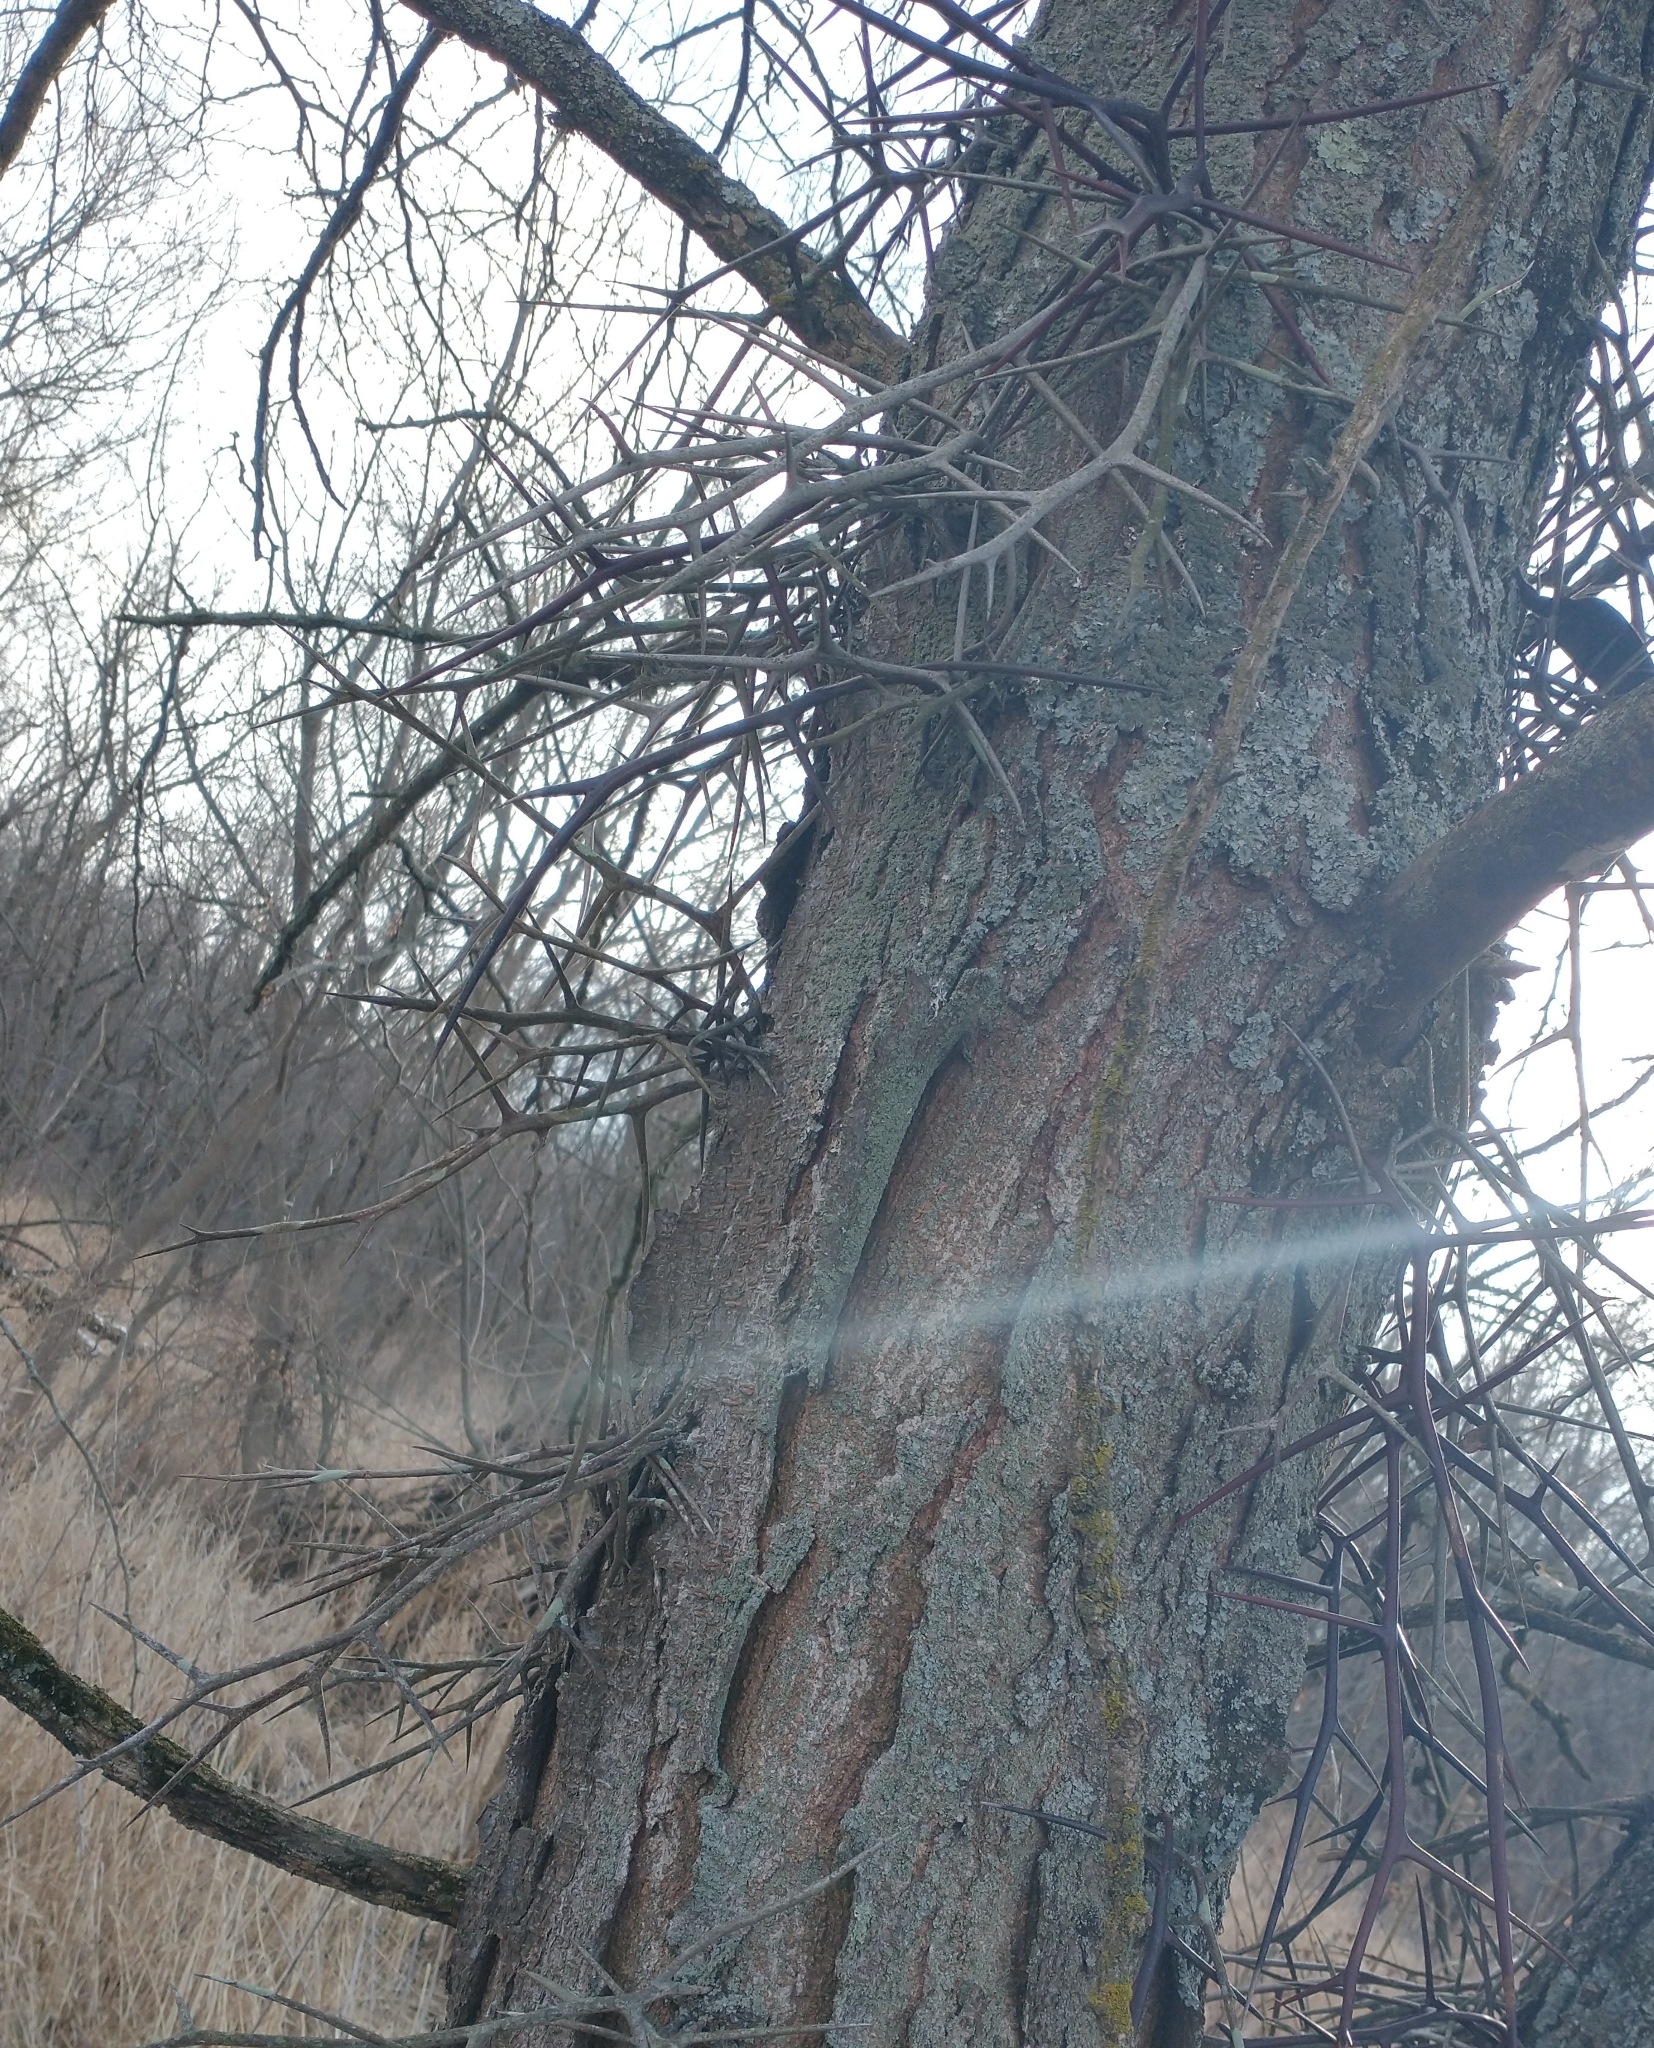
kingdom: Plantae
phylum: Tracheophyta
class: Magnoliopsida
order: Fabales
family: Fabaceae
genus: Gleditsia
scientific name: Gleditsia triacanthos
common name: Common honeylocust
